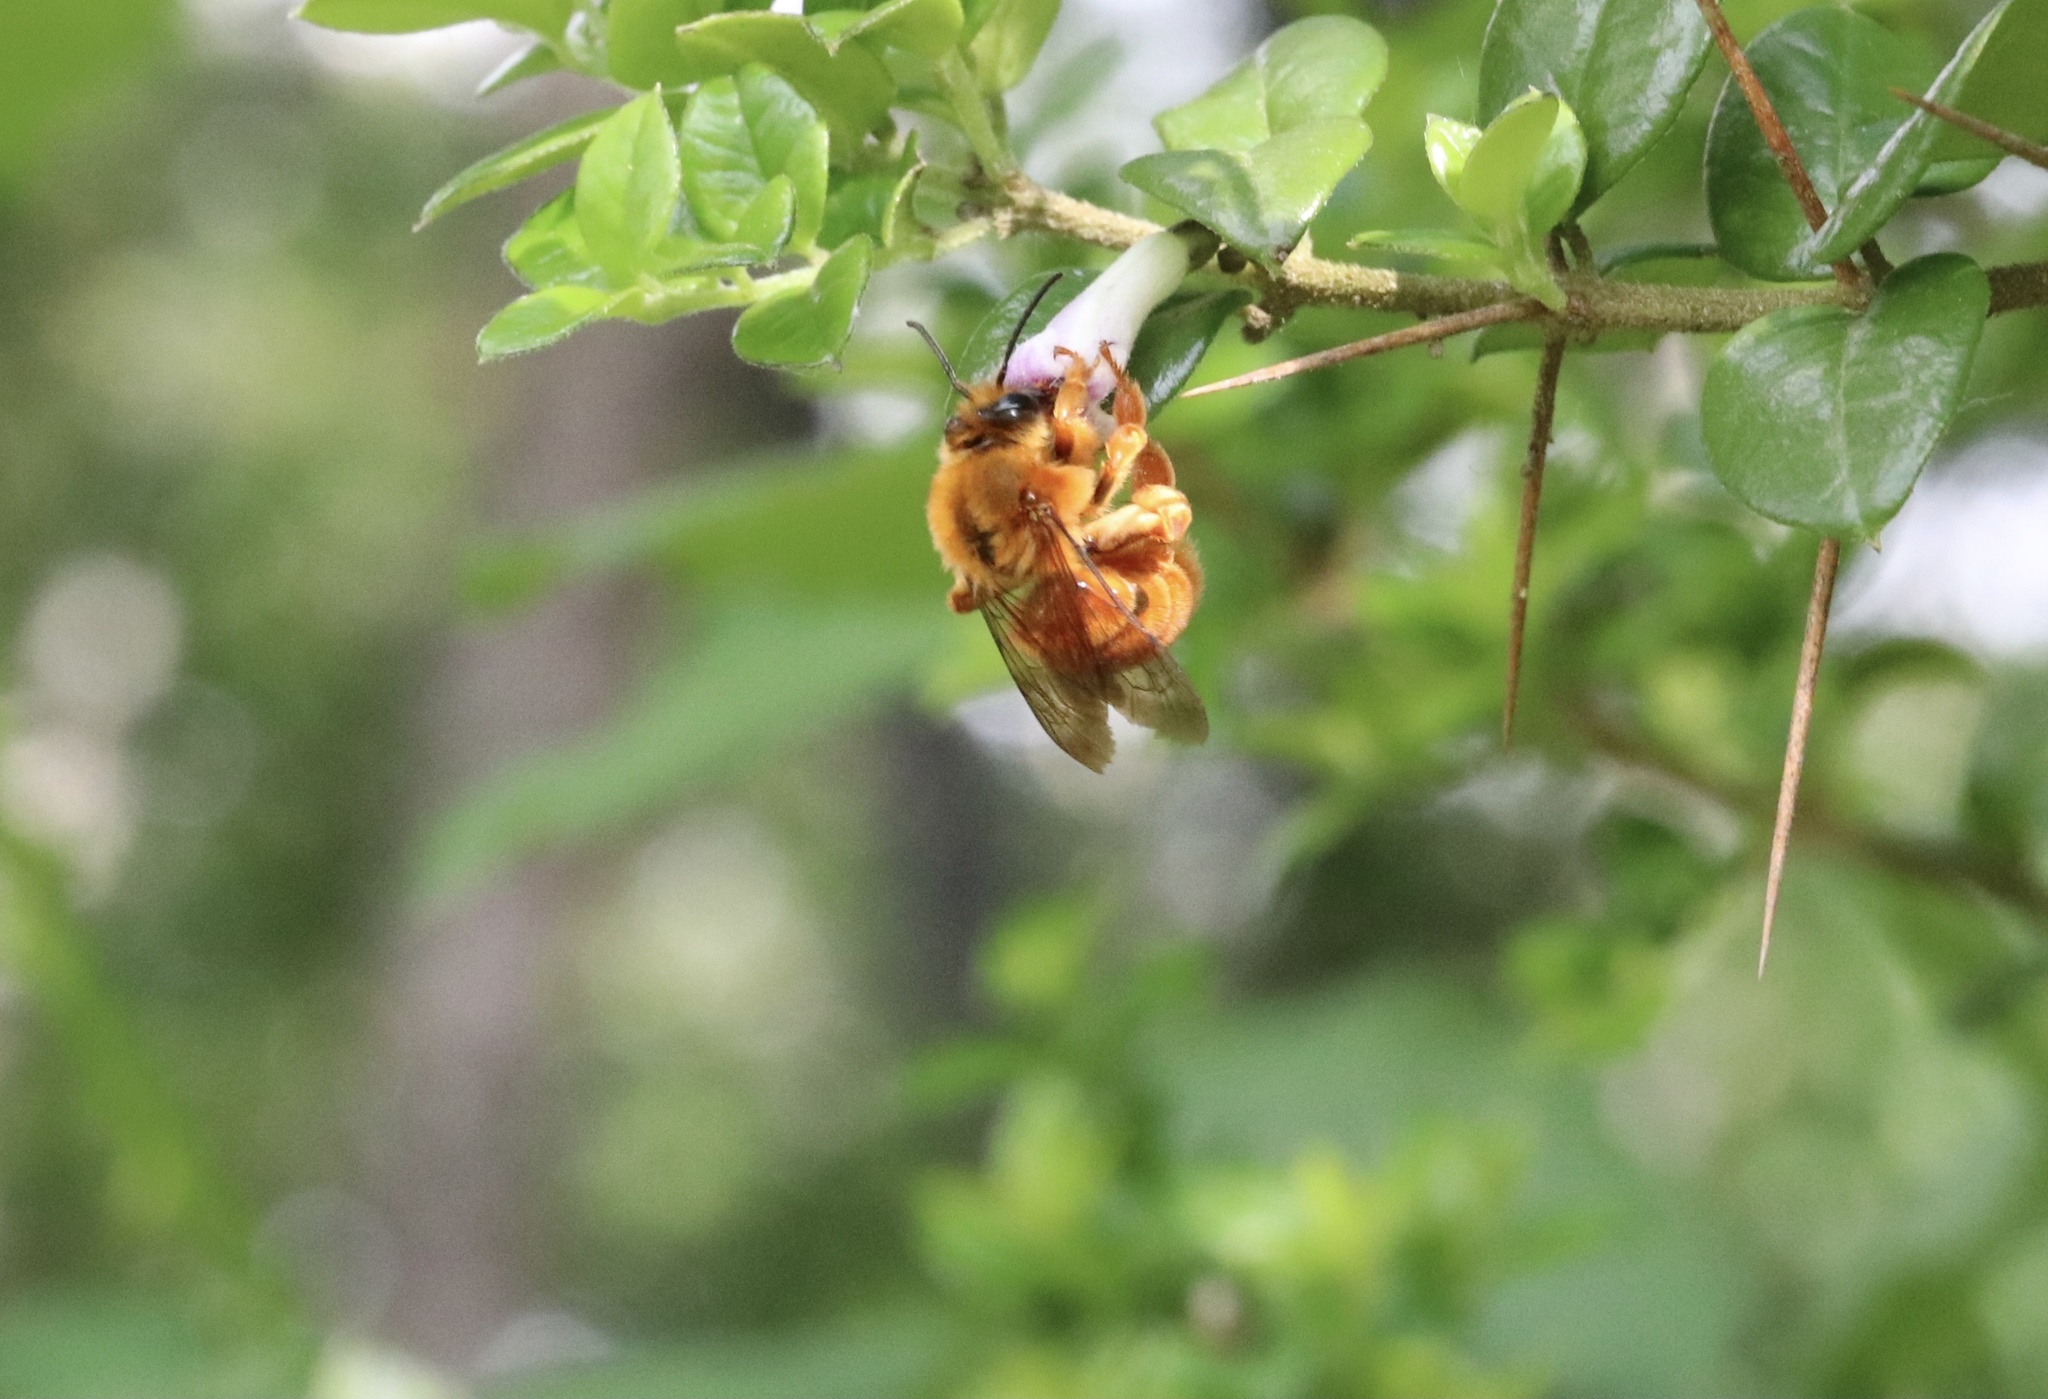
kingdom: Animalia
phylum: Arthropoda
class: Insecta
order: Hymenoptera
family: Colletidae
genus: Diphaglossa
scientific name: Diphaglossa gayi
